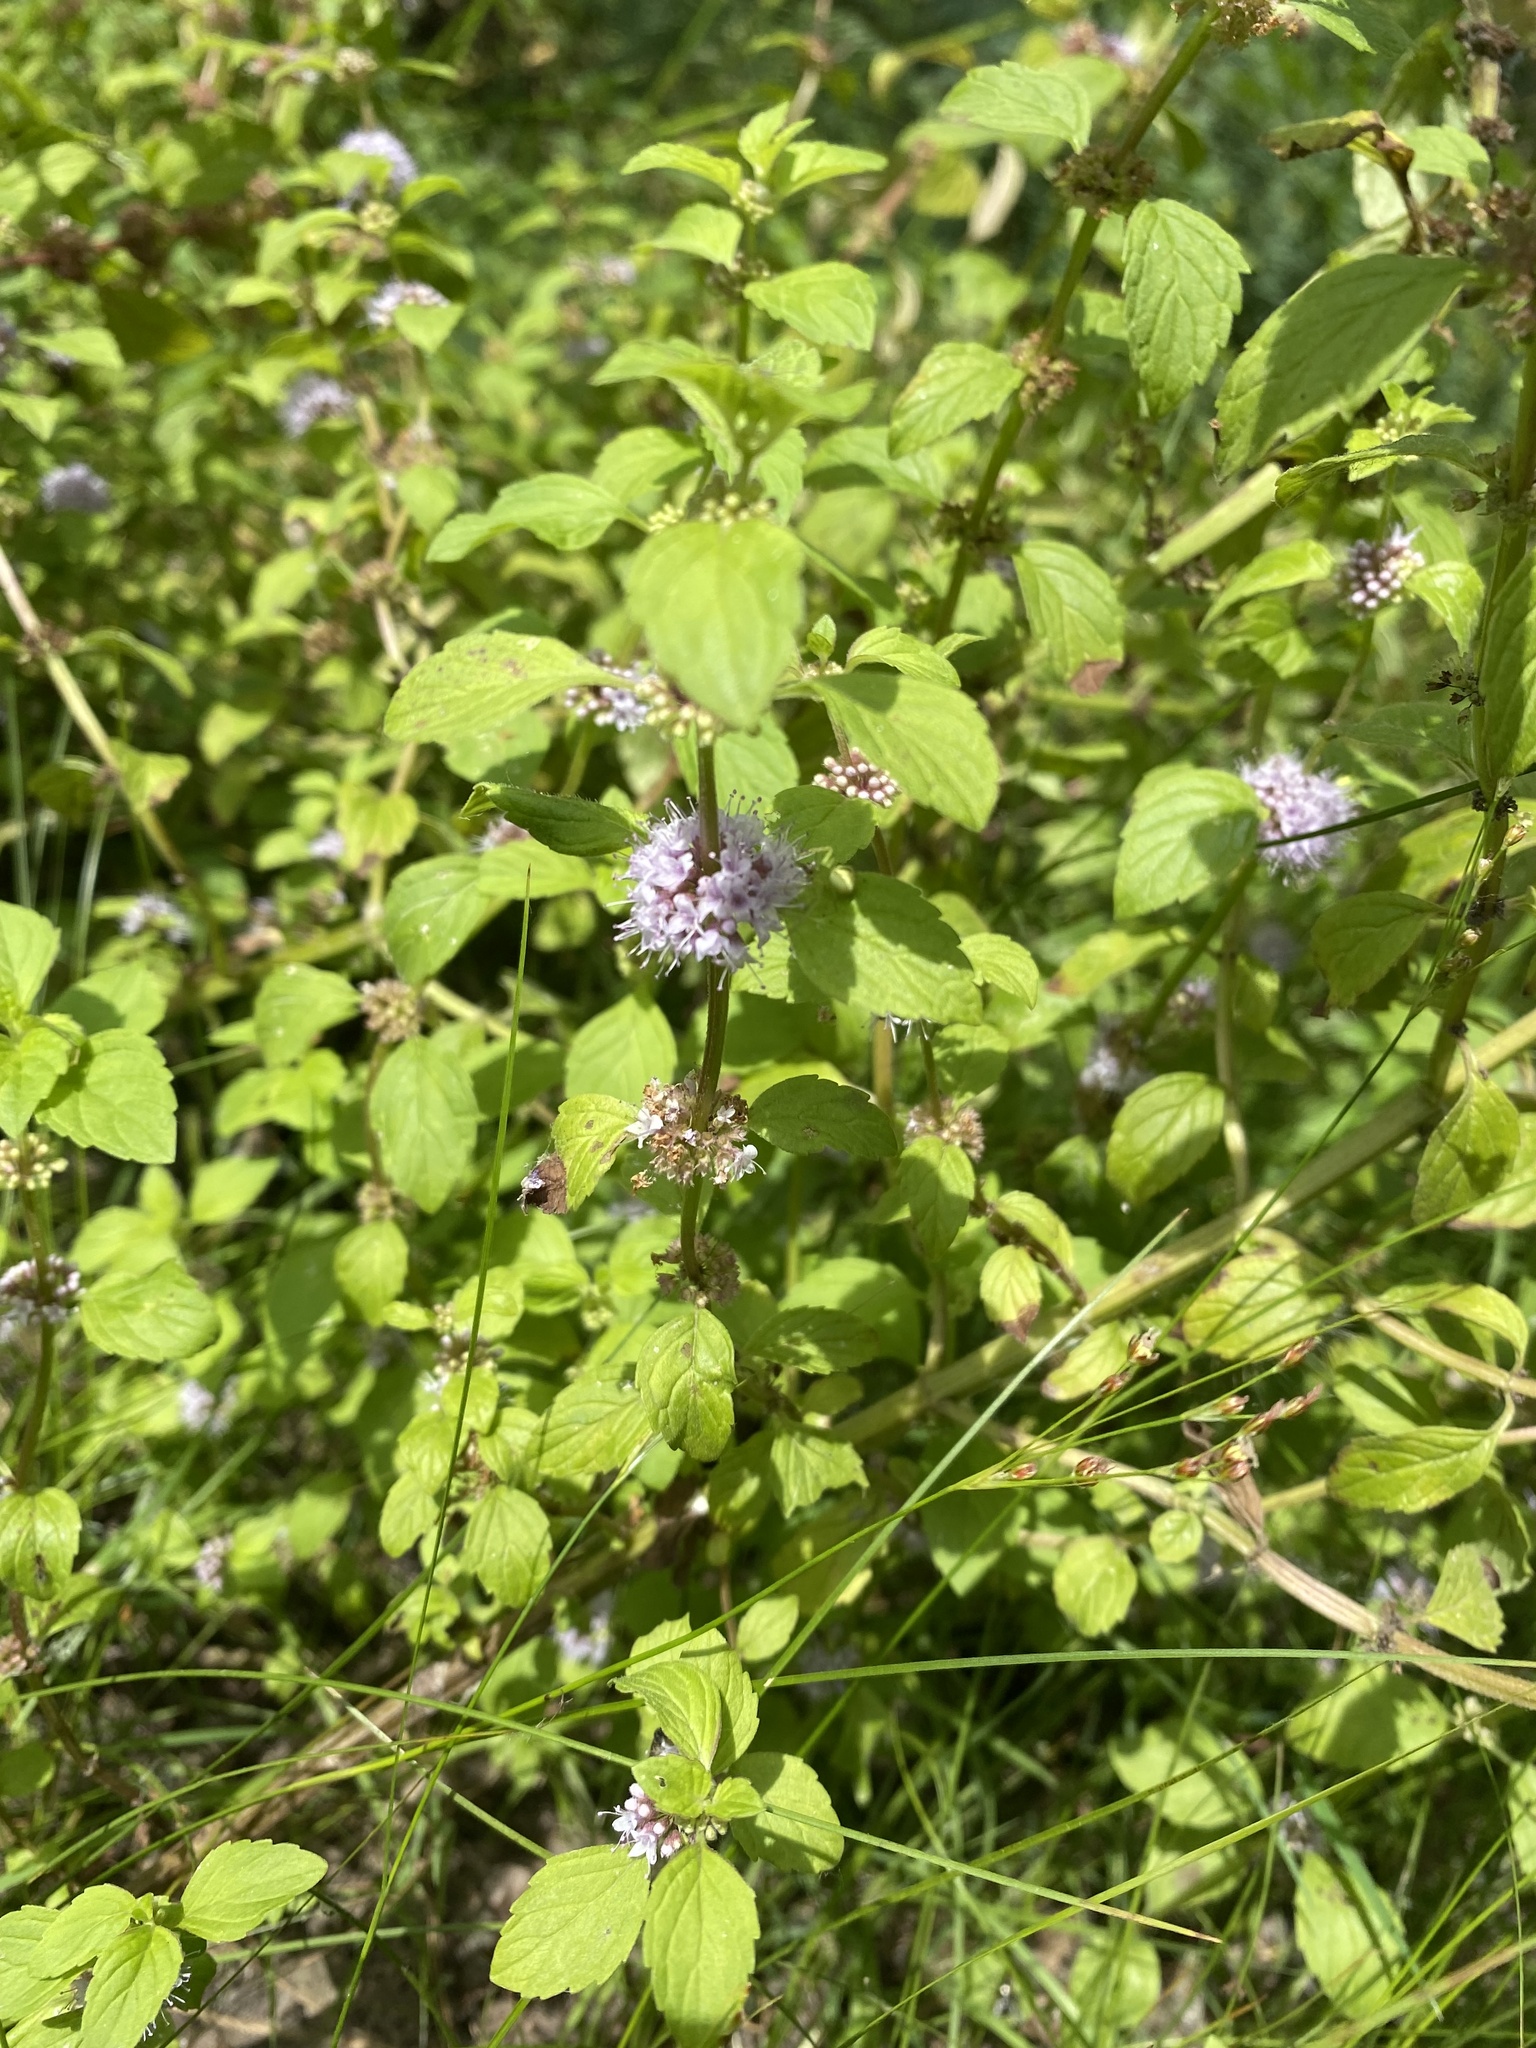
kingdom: Plantae
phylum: Tracheophyta
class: Magnoliopsida
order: Lamiales
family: Lamiaceae
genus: Mentha
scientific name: Mentha arvensis
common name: Corn mint
